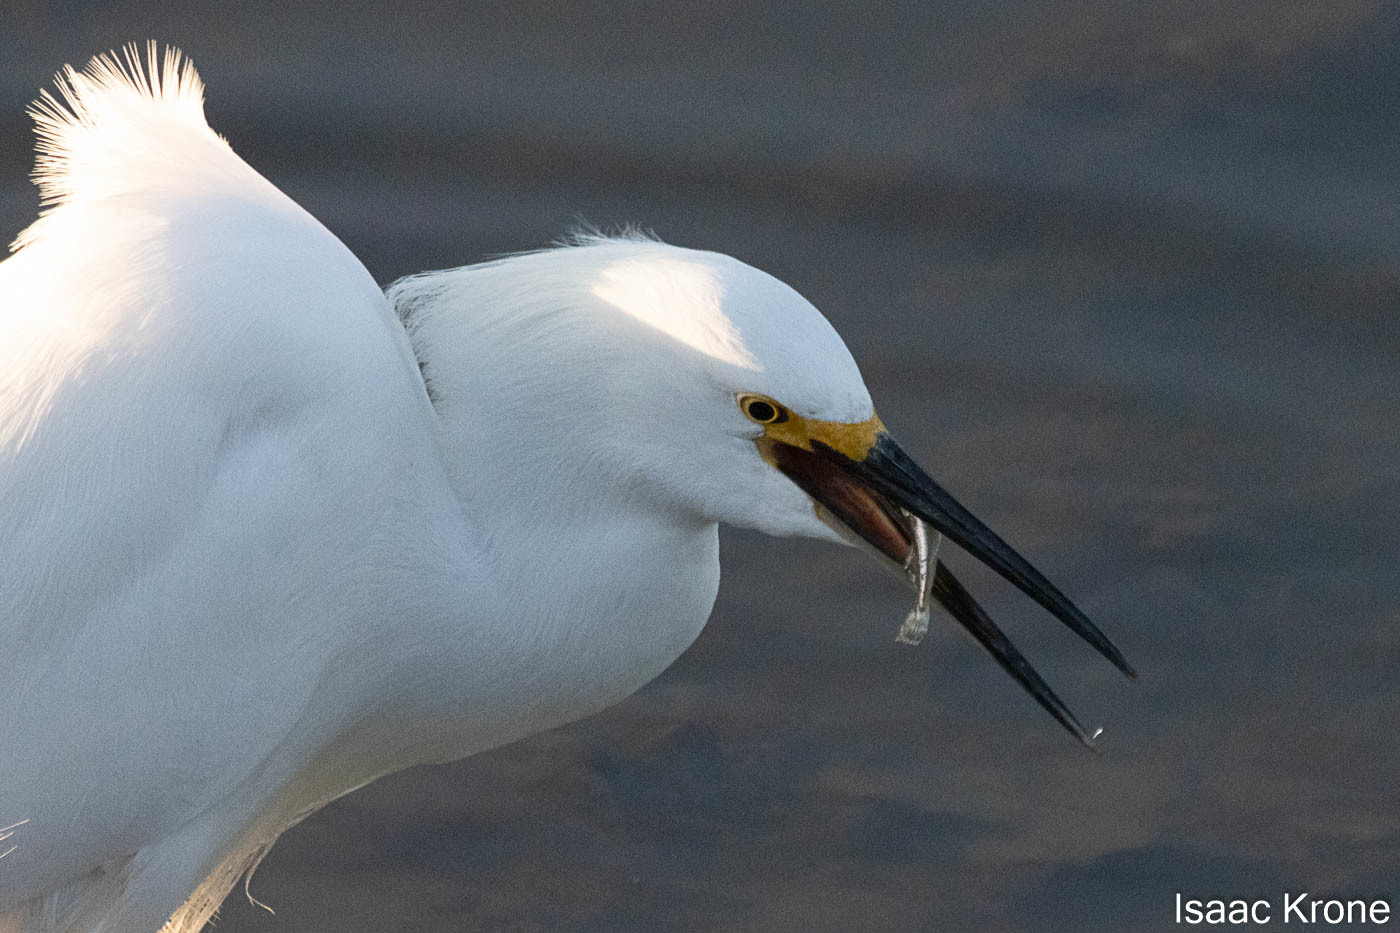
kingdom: Animalia
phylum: Chordata
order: Scorpaeniformes
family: Cottidae
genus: Leptocottus
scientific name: Leptocottus armatus
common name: Pacific staghorn sculpin
